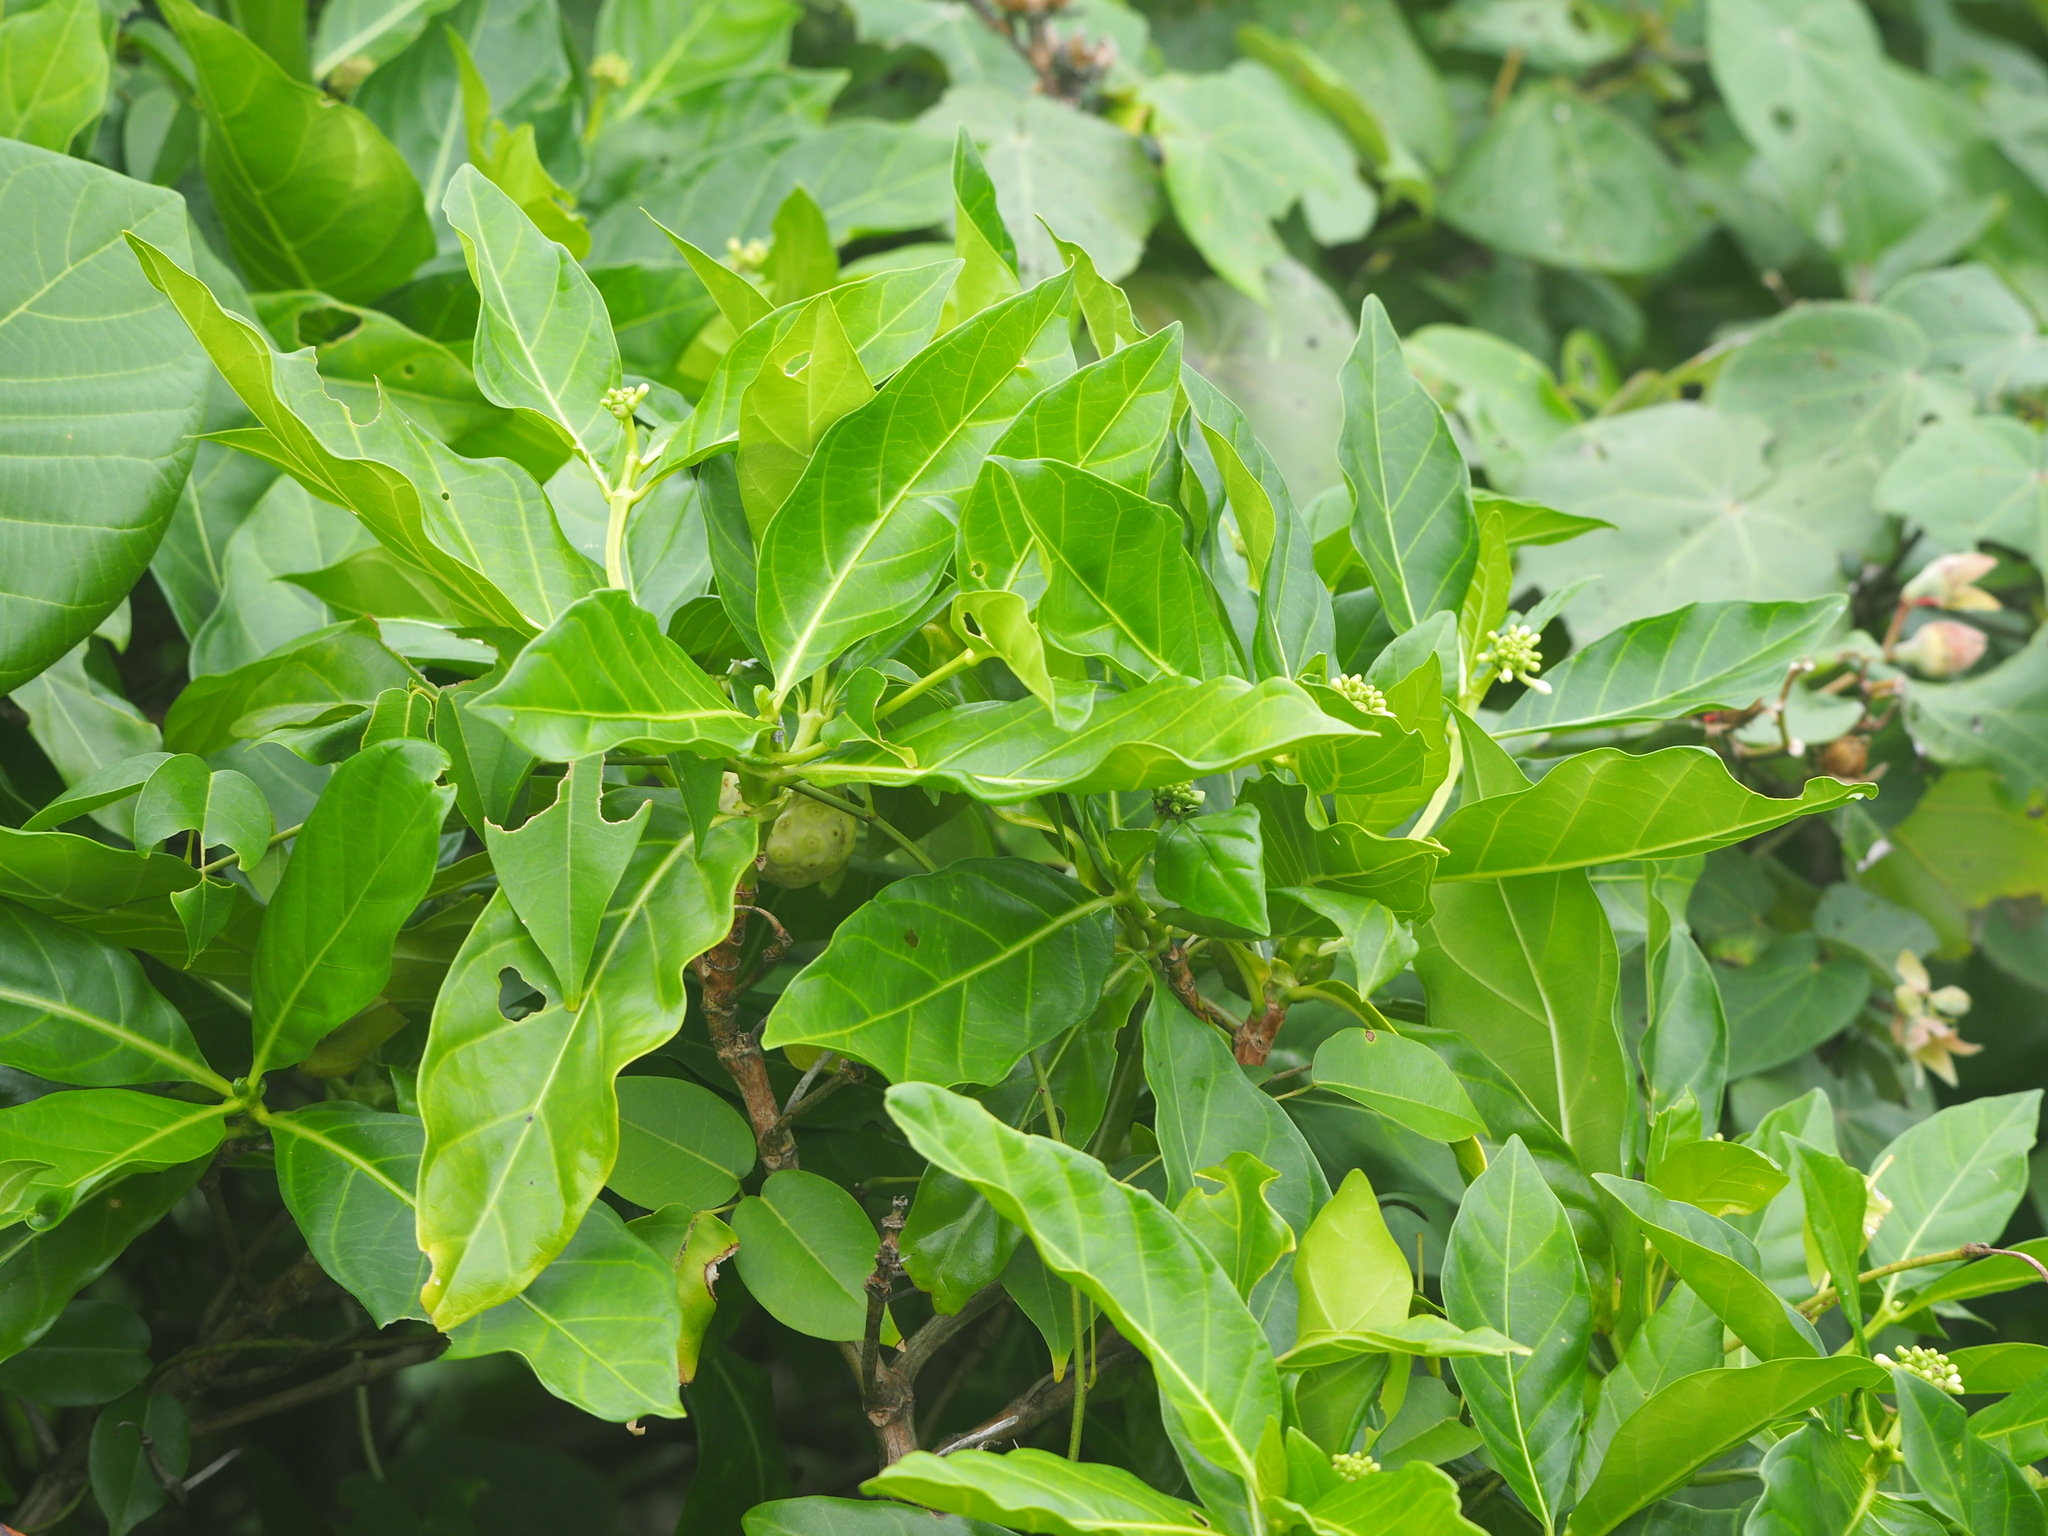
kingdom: Plantae
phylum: Tracheophyta
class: Magnoliopsida
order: Gentianales
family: Rubiaceae
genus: Morinda
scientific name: Morinda citrifolia
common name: Indian-mulberry
